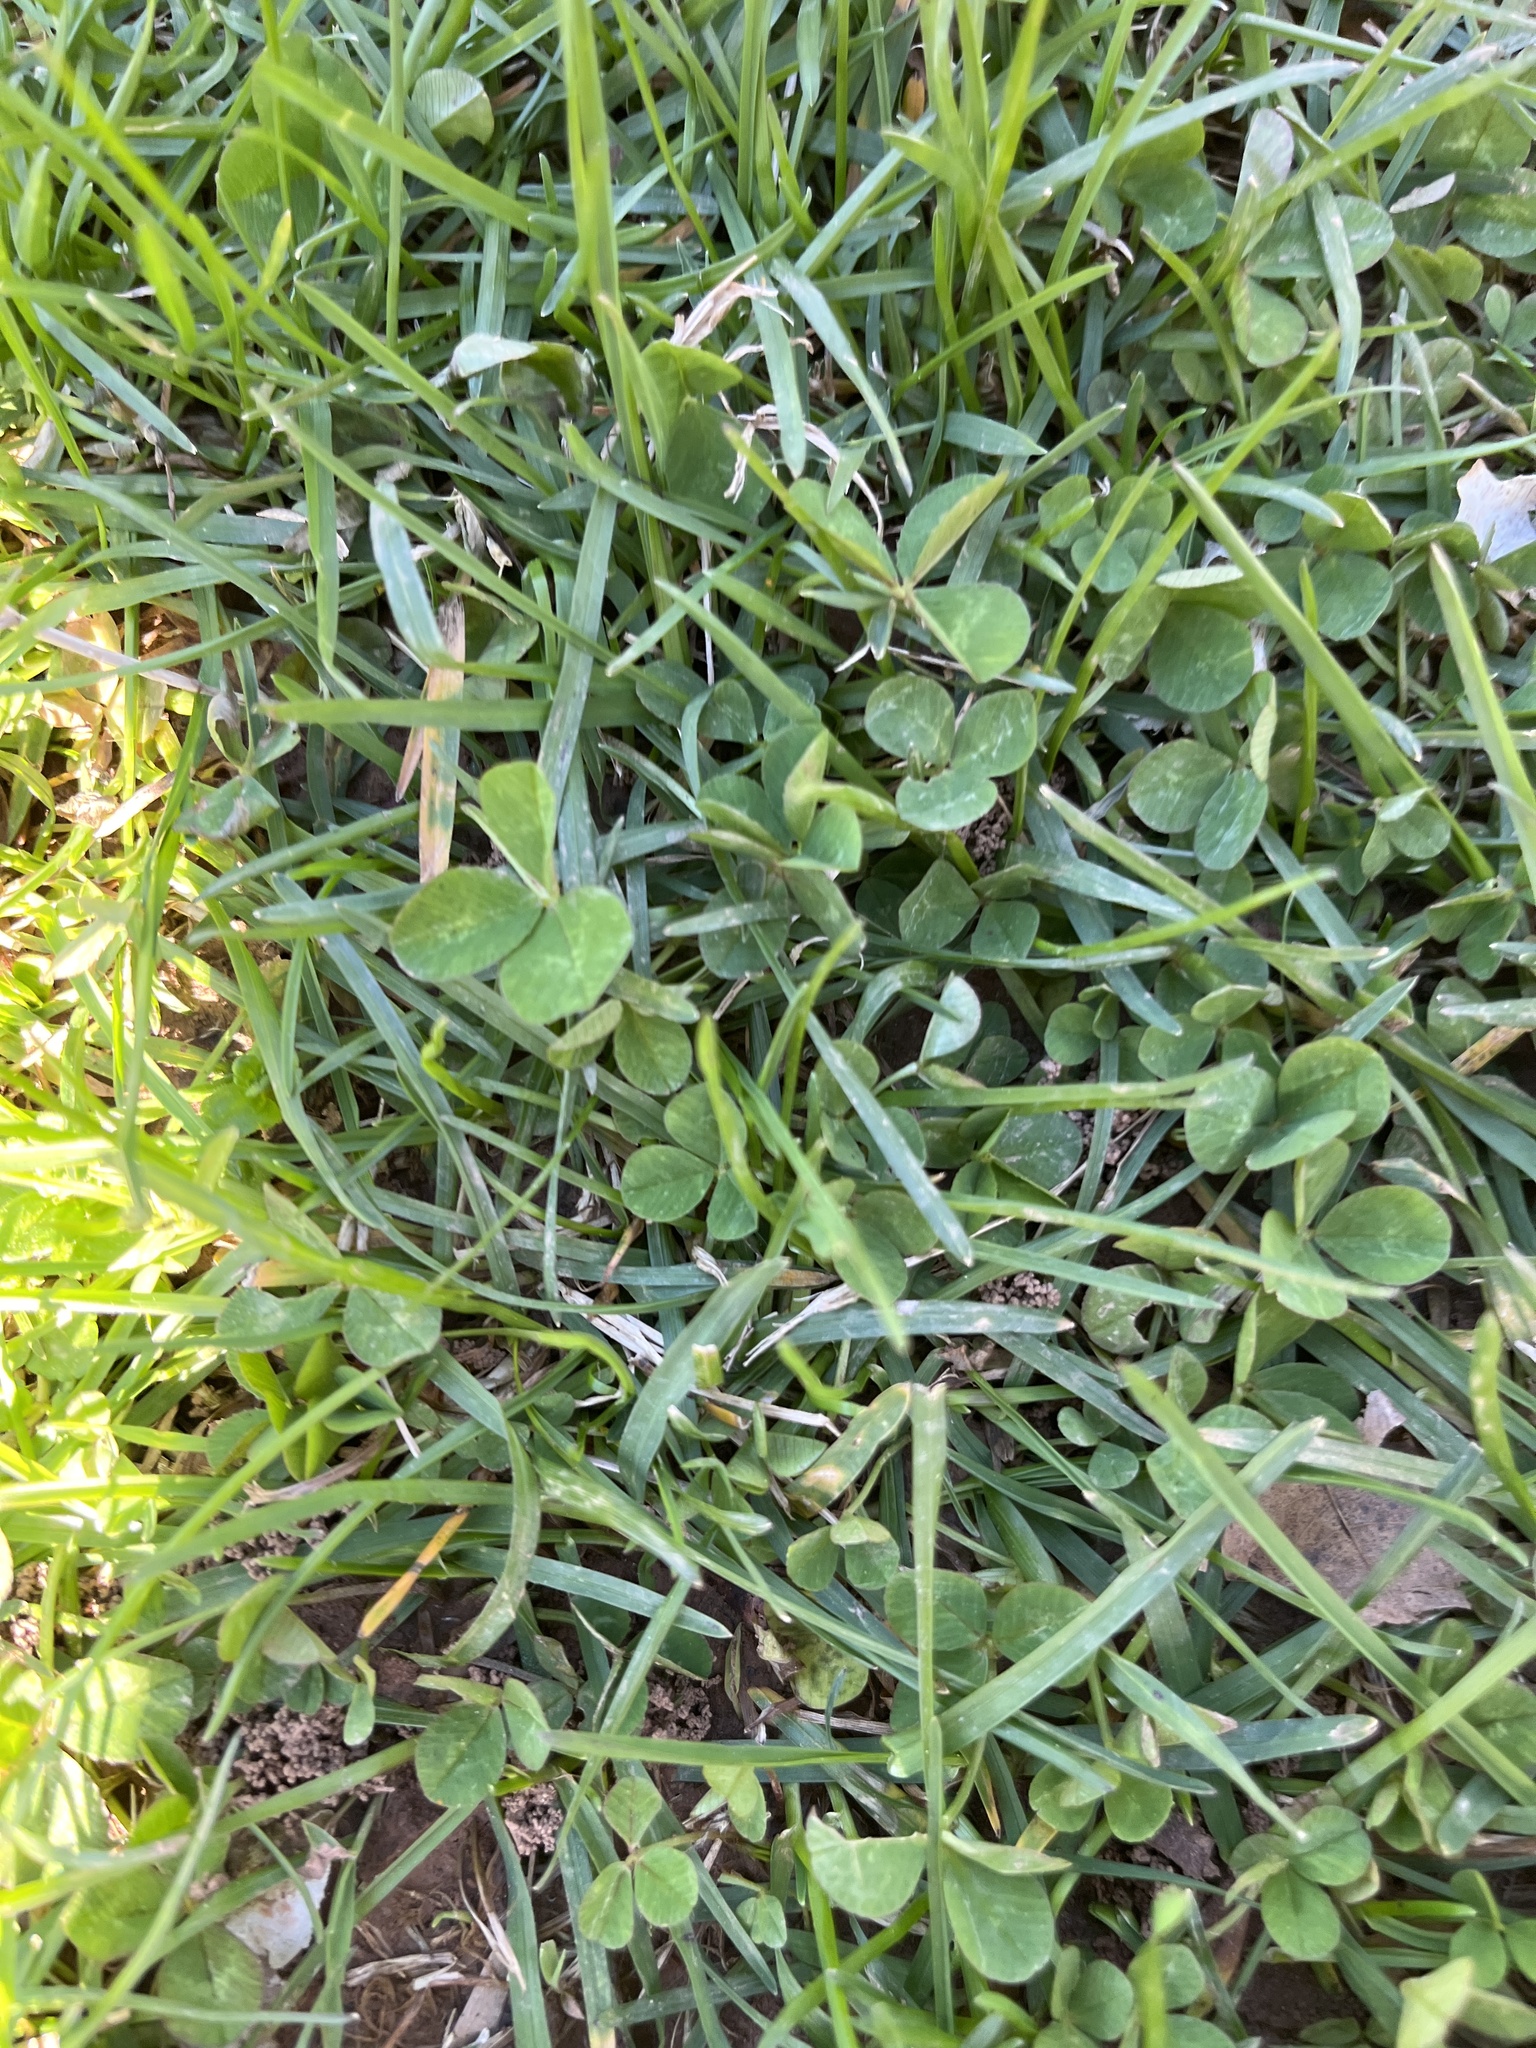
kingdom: Plantae
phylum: Tracheophyta
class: Magnoliopsida
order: Fabales
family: Fabaceae
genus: Trifolium
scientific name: Trifolium repens
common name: White clover
